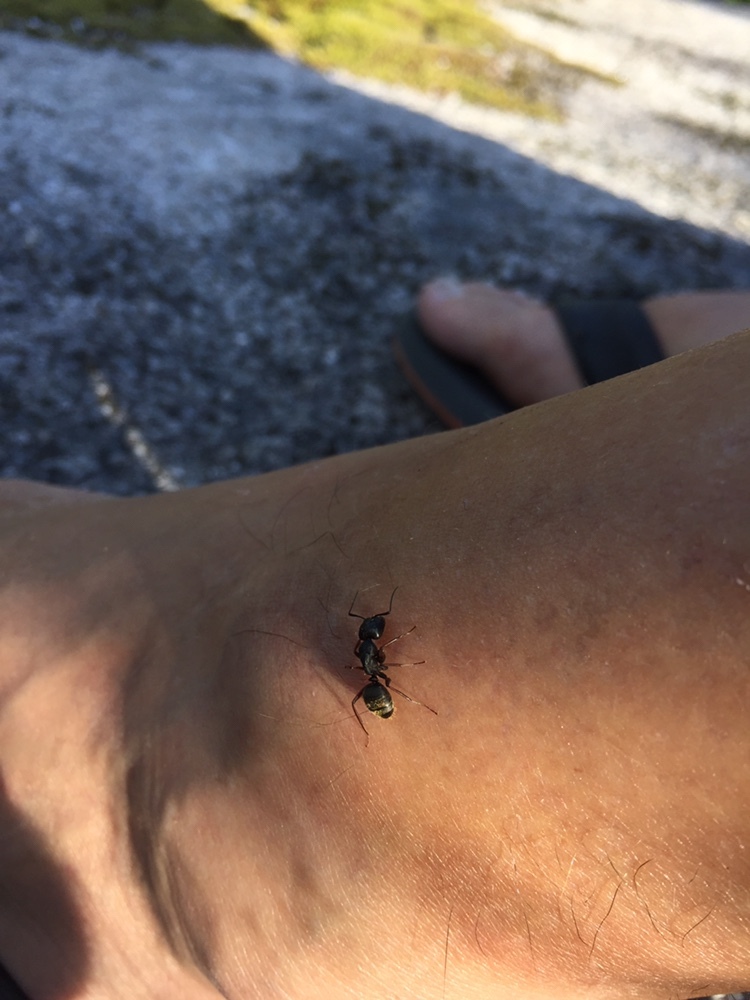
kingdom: Animalia
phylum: Arthropoda
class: Insecta
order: Hymenoptera
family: Formicidae
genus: Camponotus
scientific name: Camponotus modoc
